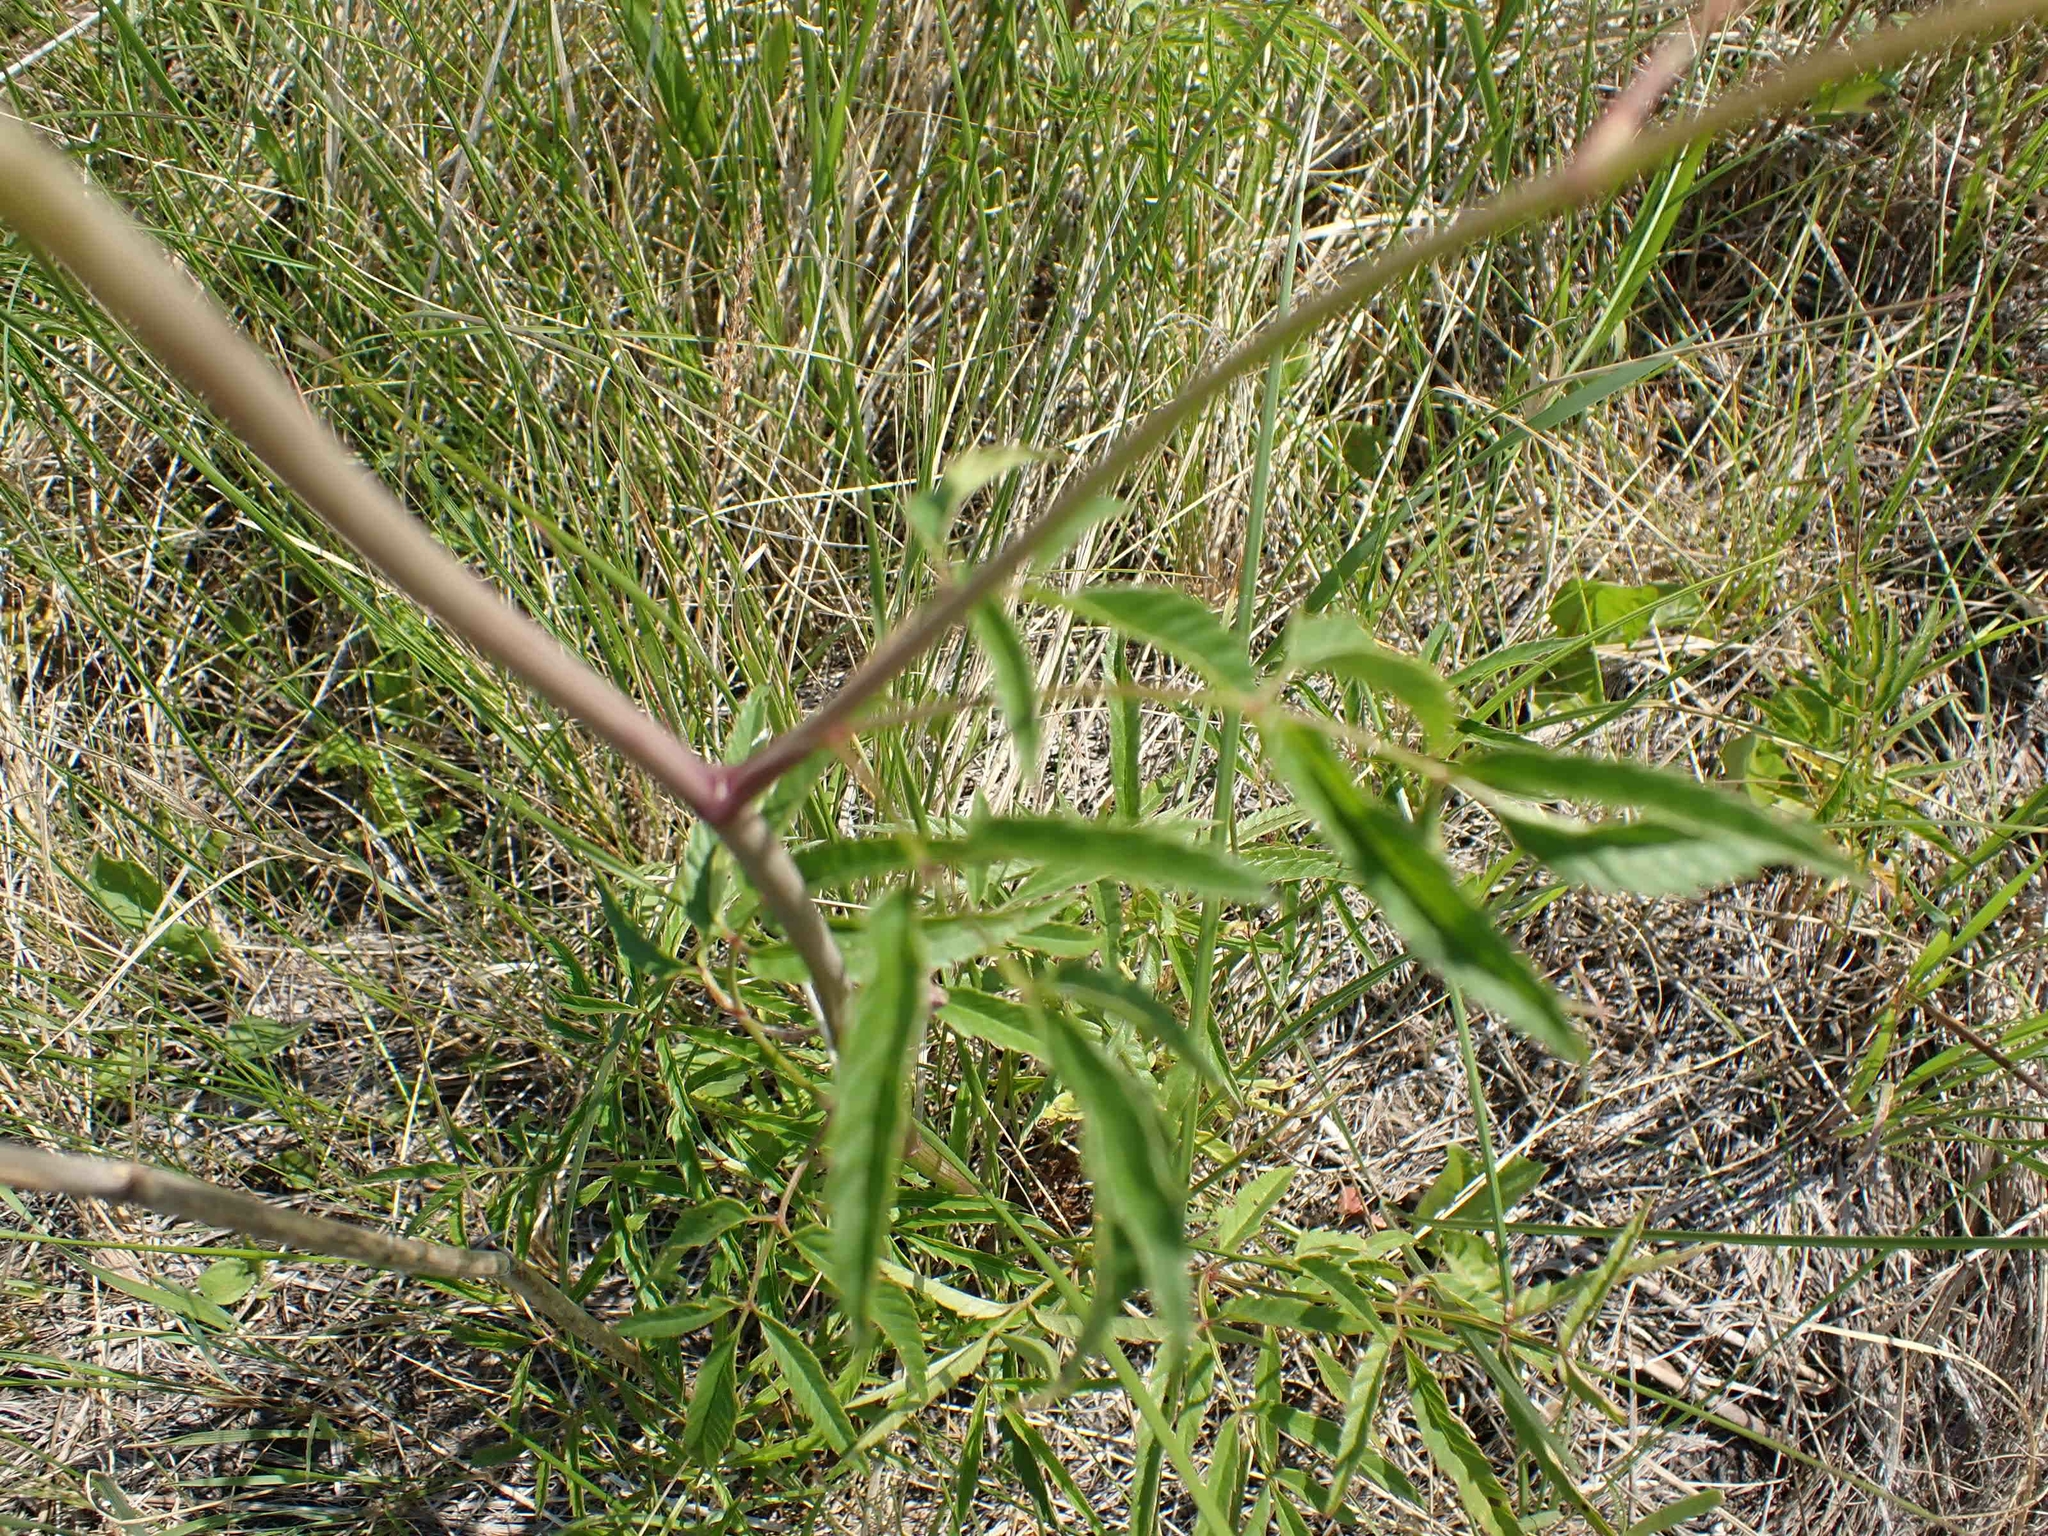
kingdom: Plantae
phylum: Tracheophyta
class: Magnoliopsida
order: Apiales
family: Apiaceae
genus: Sium
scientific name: Sium suave
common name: Hemlock water-parsnip
